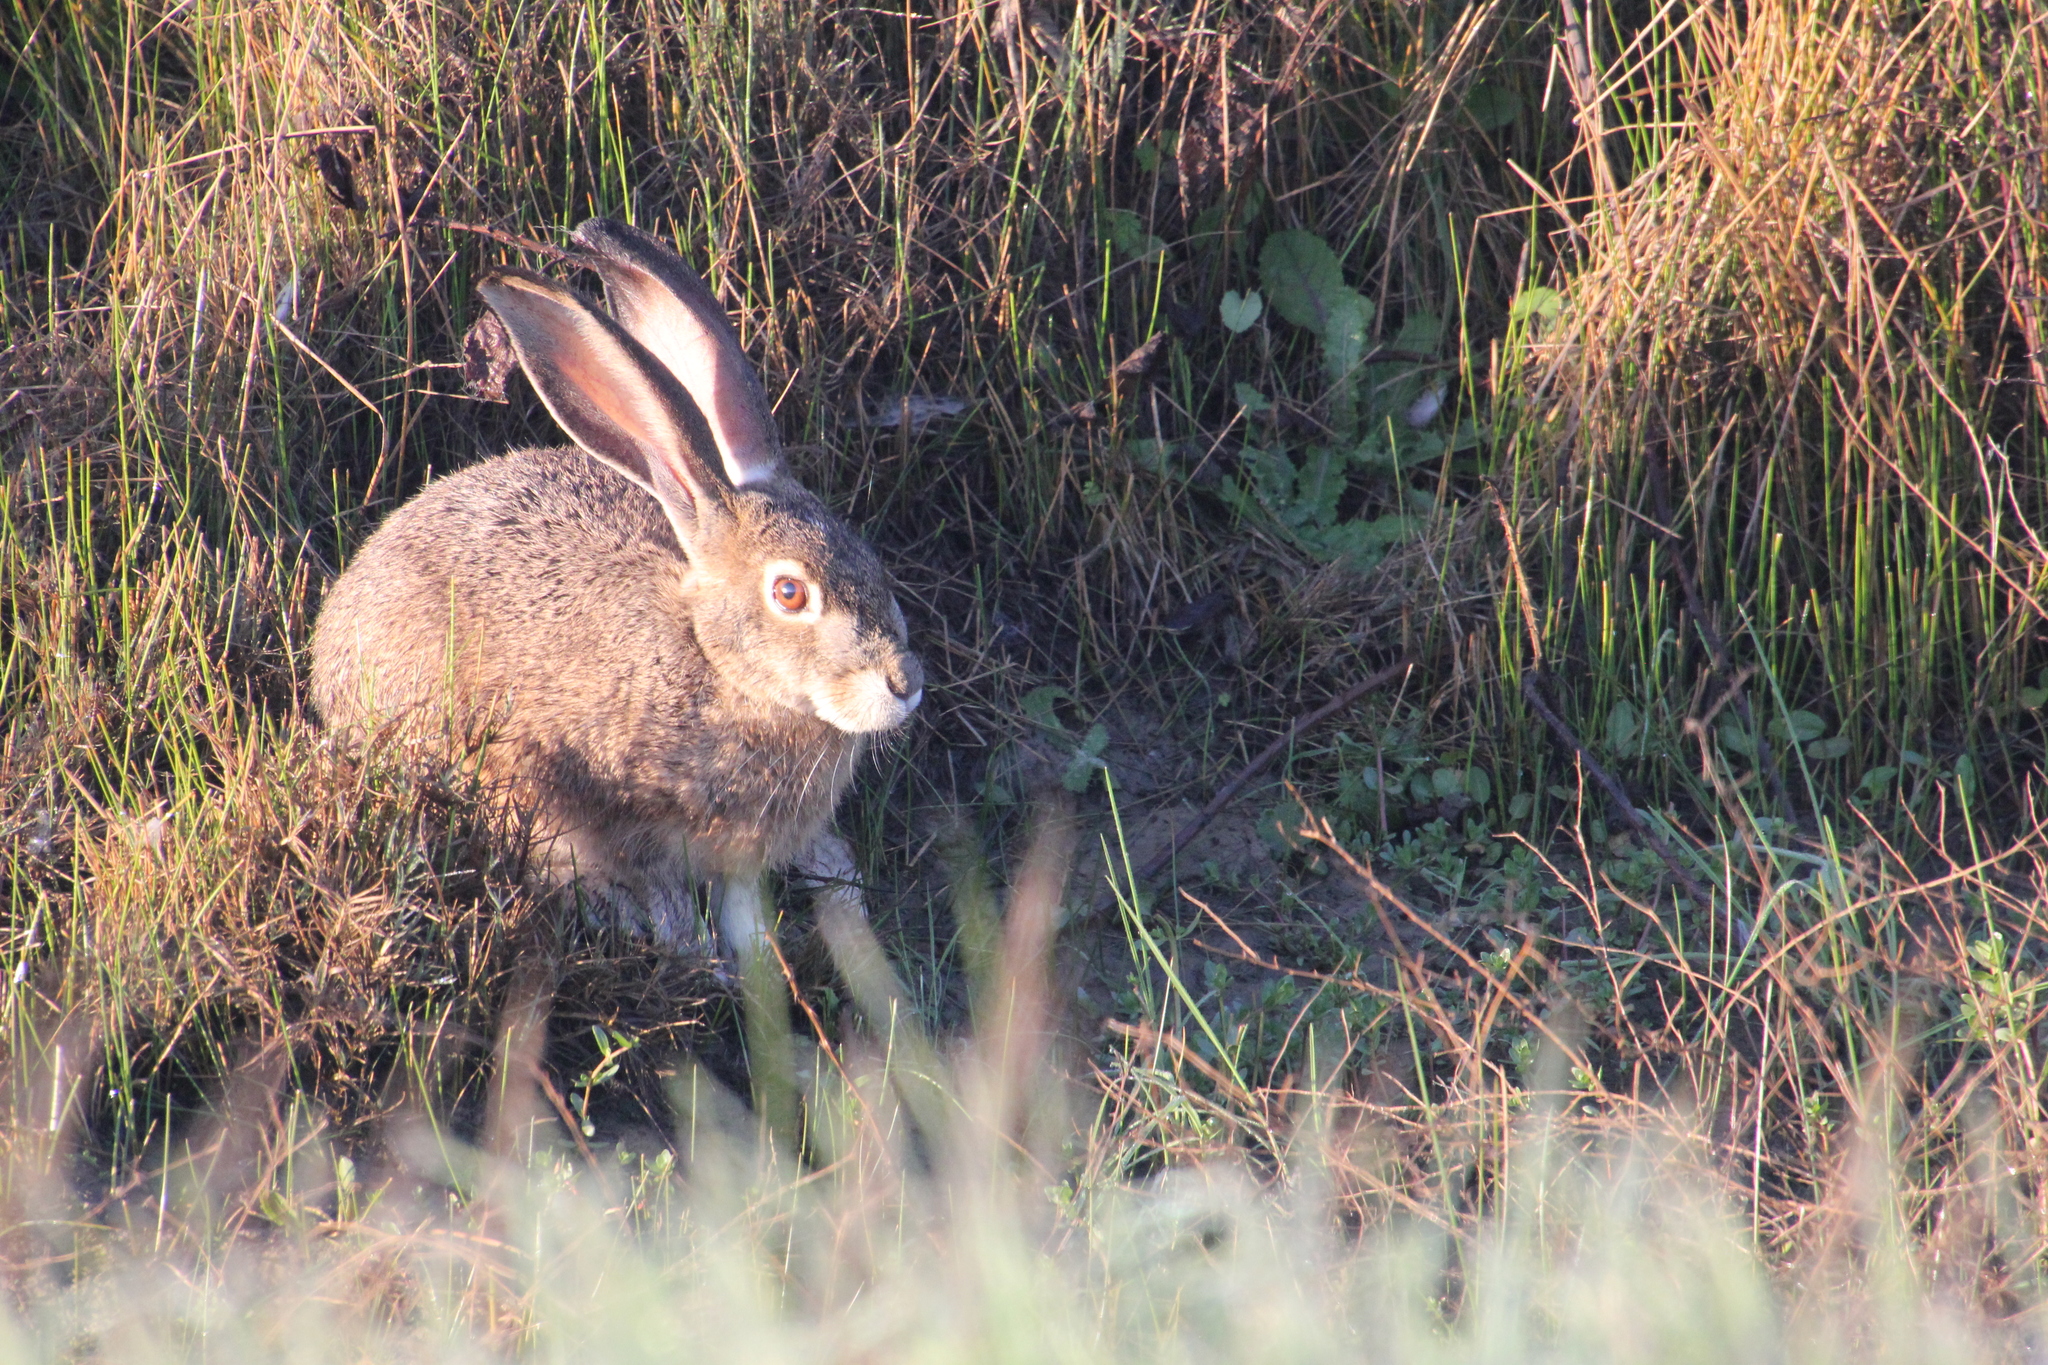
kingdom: Animalia
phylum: Chordata
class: Mammalia
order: Lagomorpha
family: Leporidae
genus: Lepus
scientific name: Lepus californicus
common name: Black-tailed jackrabbit
